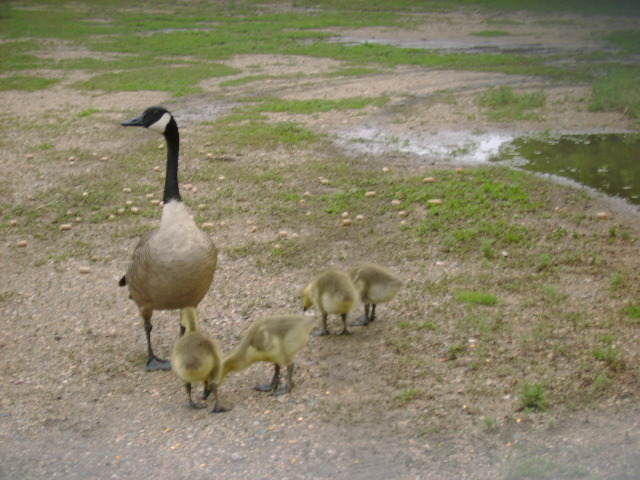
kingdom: Animalia
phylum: Chordata
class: Aves
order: Anseriformes
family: Anatidae
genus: Branta
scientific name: Branta canadensis
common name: Canada goose
